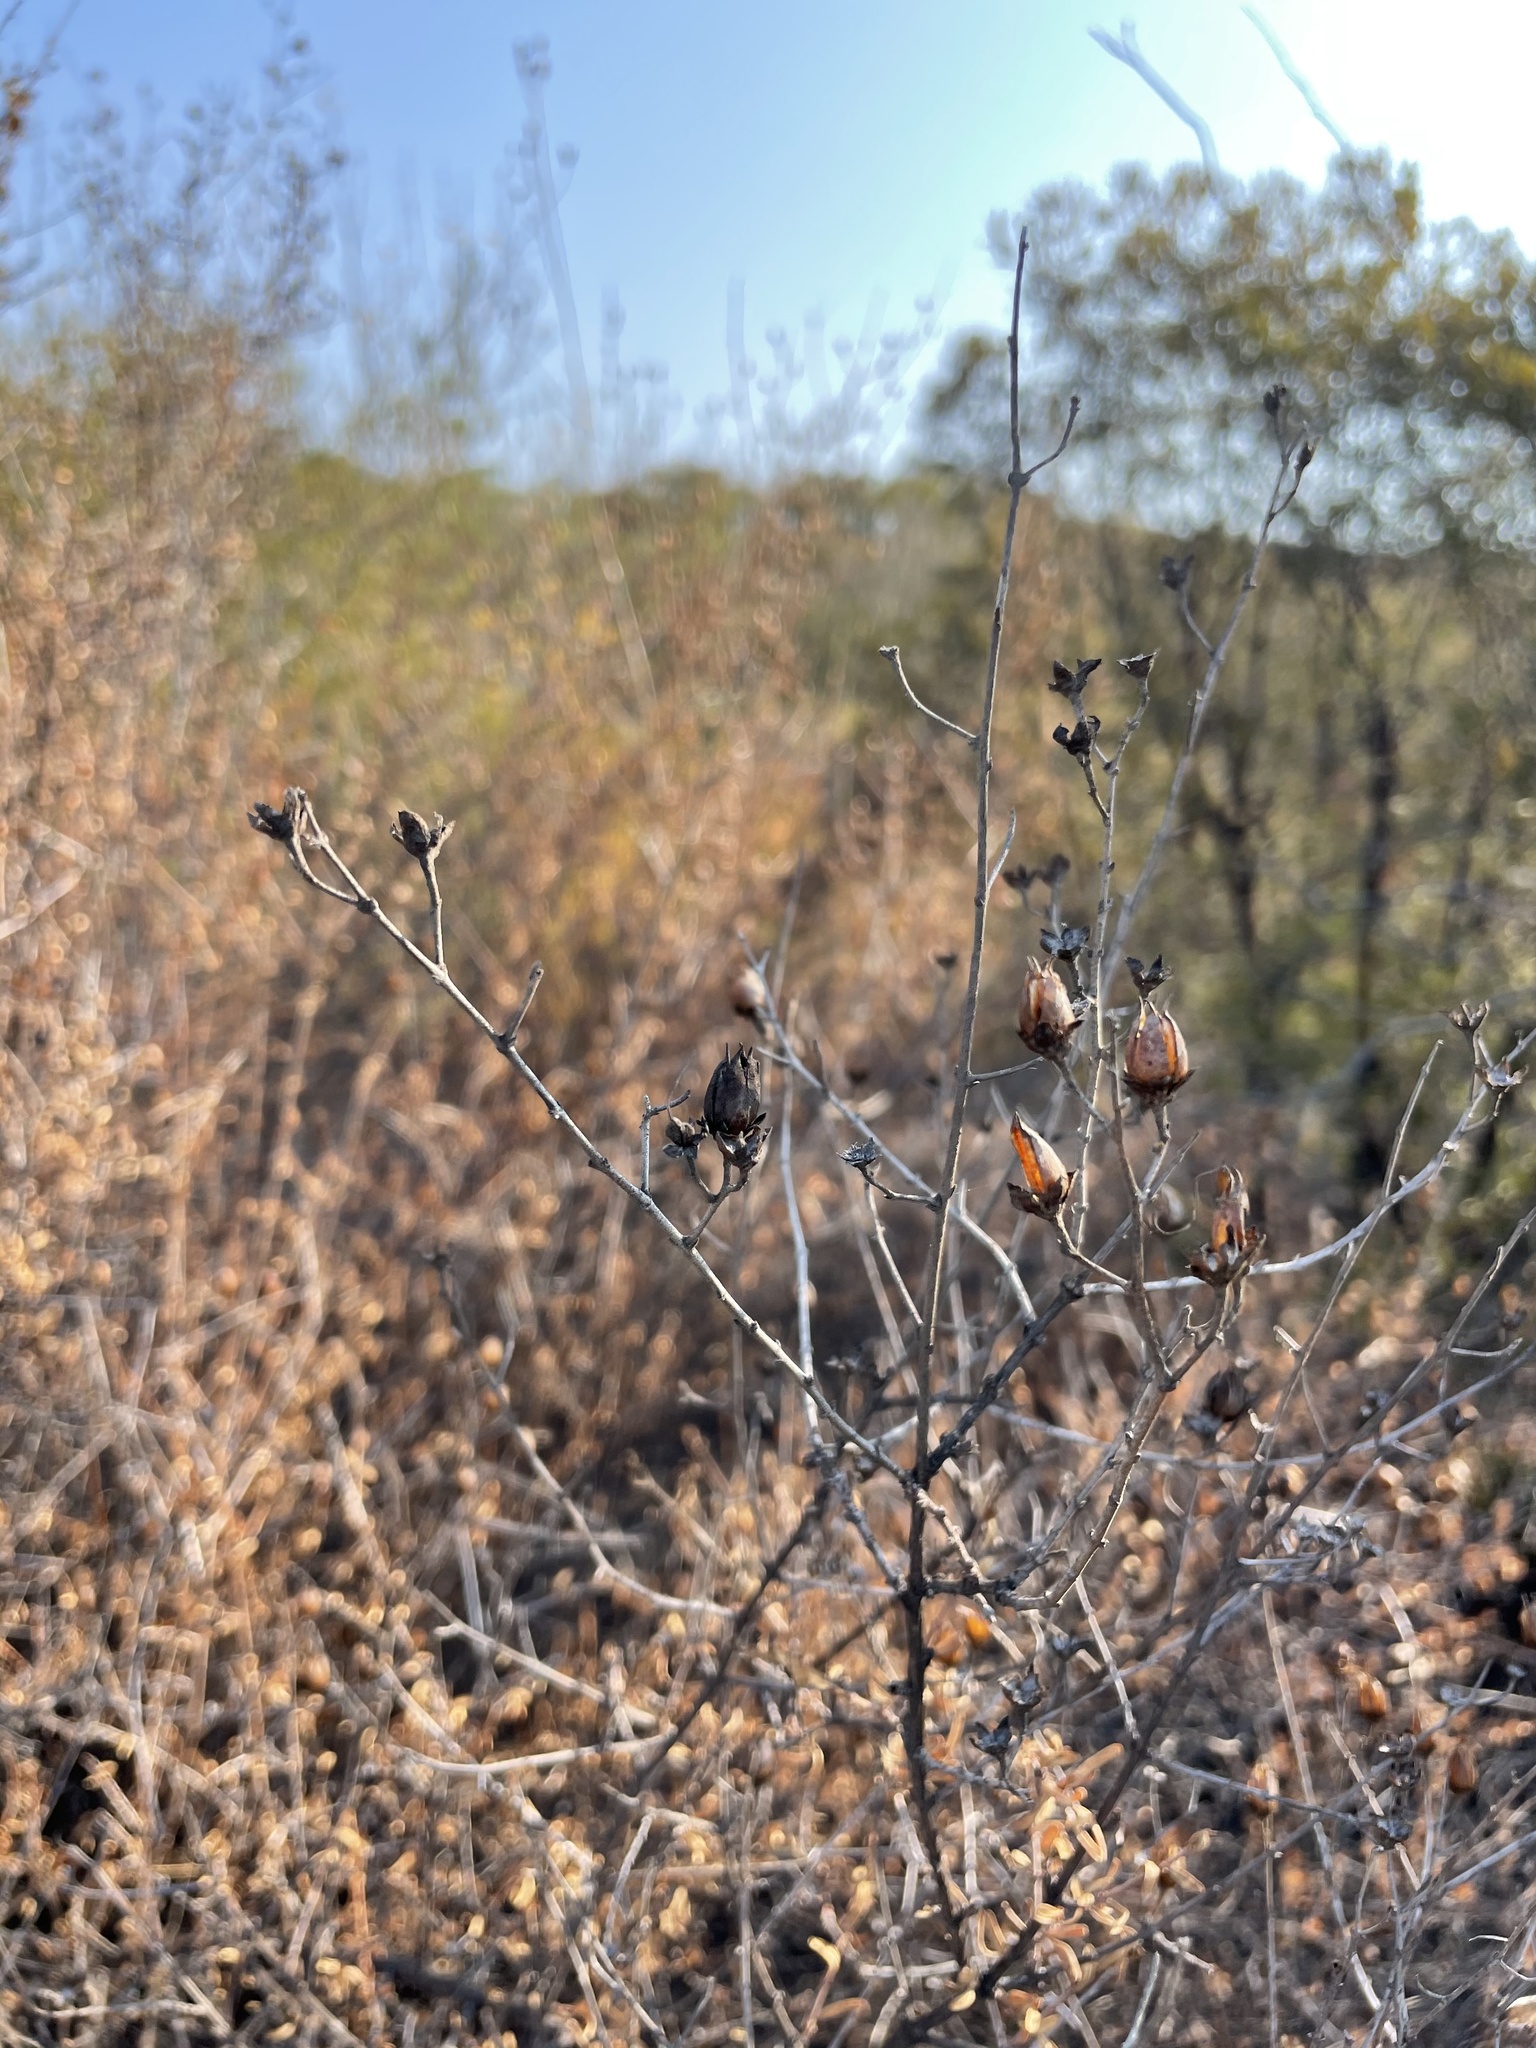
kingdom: Plantae
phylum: Tracheophyta
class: Magnoliopsida
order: Lamiales
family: Plantaginaceae
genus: Keckiella
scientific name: Keckiella antirrhinoides
